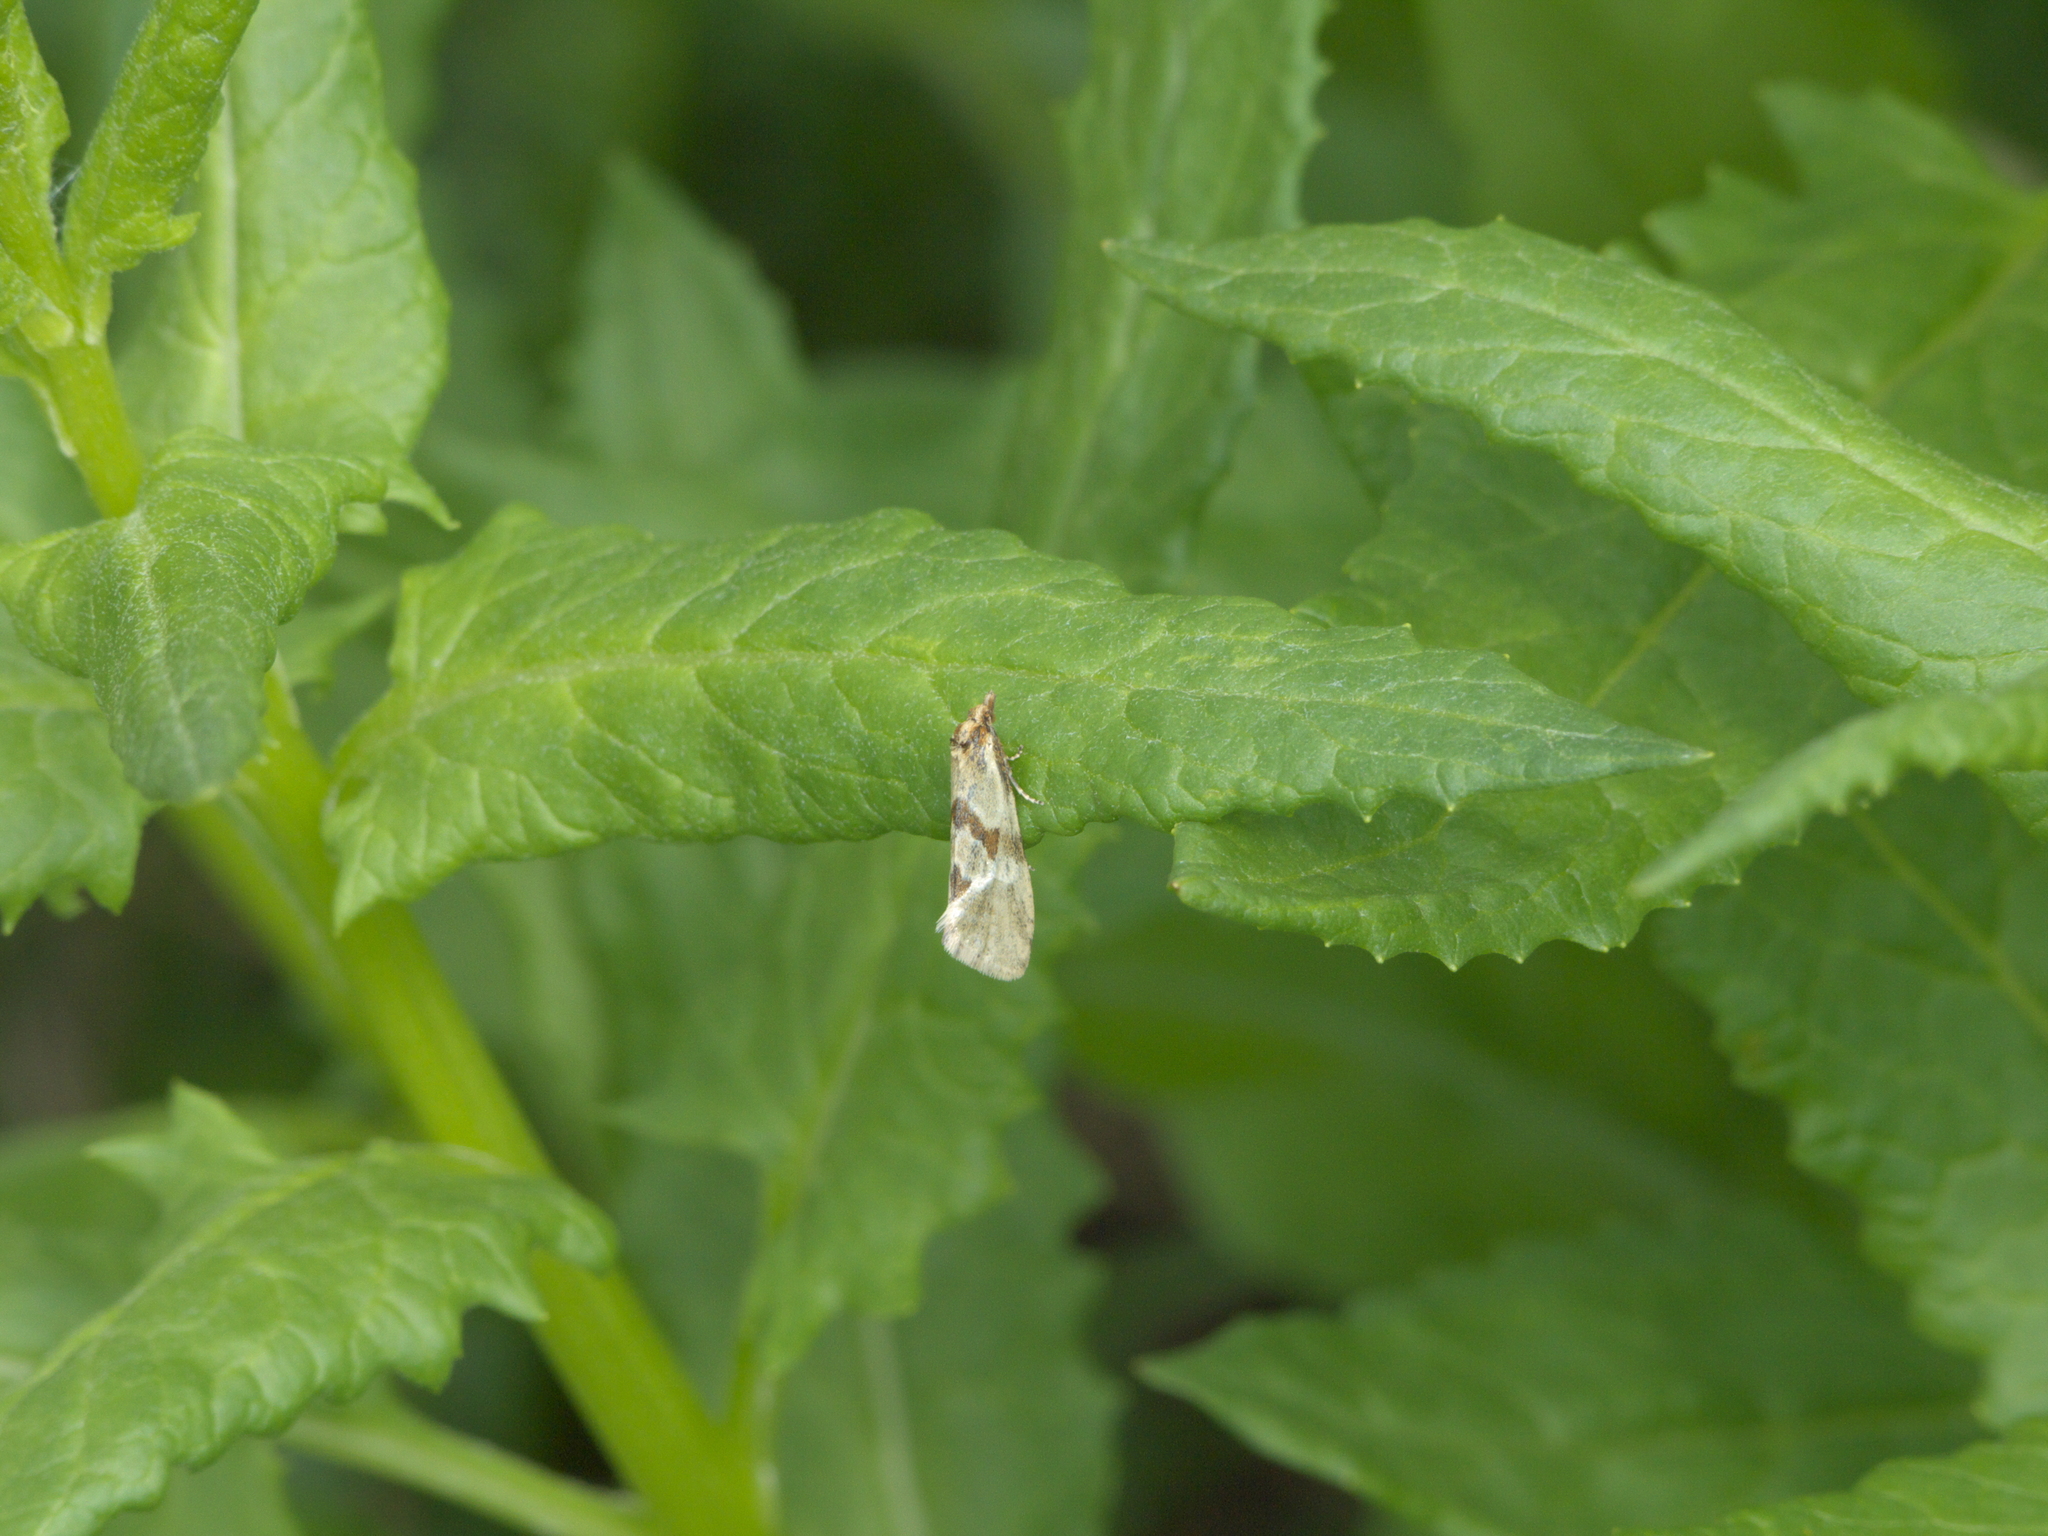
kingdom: Plantae
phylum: Tracheophyta
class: Magnoliopsida
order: Asterales
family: Asteraceae
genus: Senecio
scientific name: Senecio triangularis
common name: Arrowleaf butterweed
